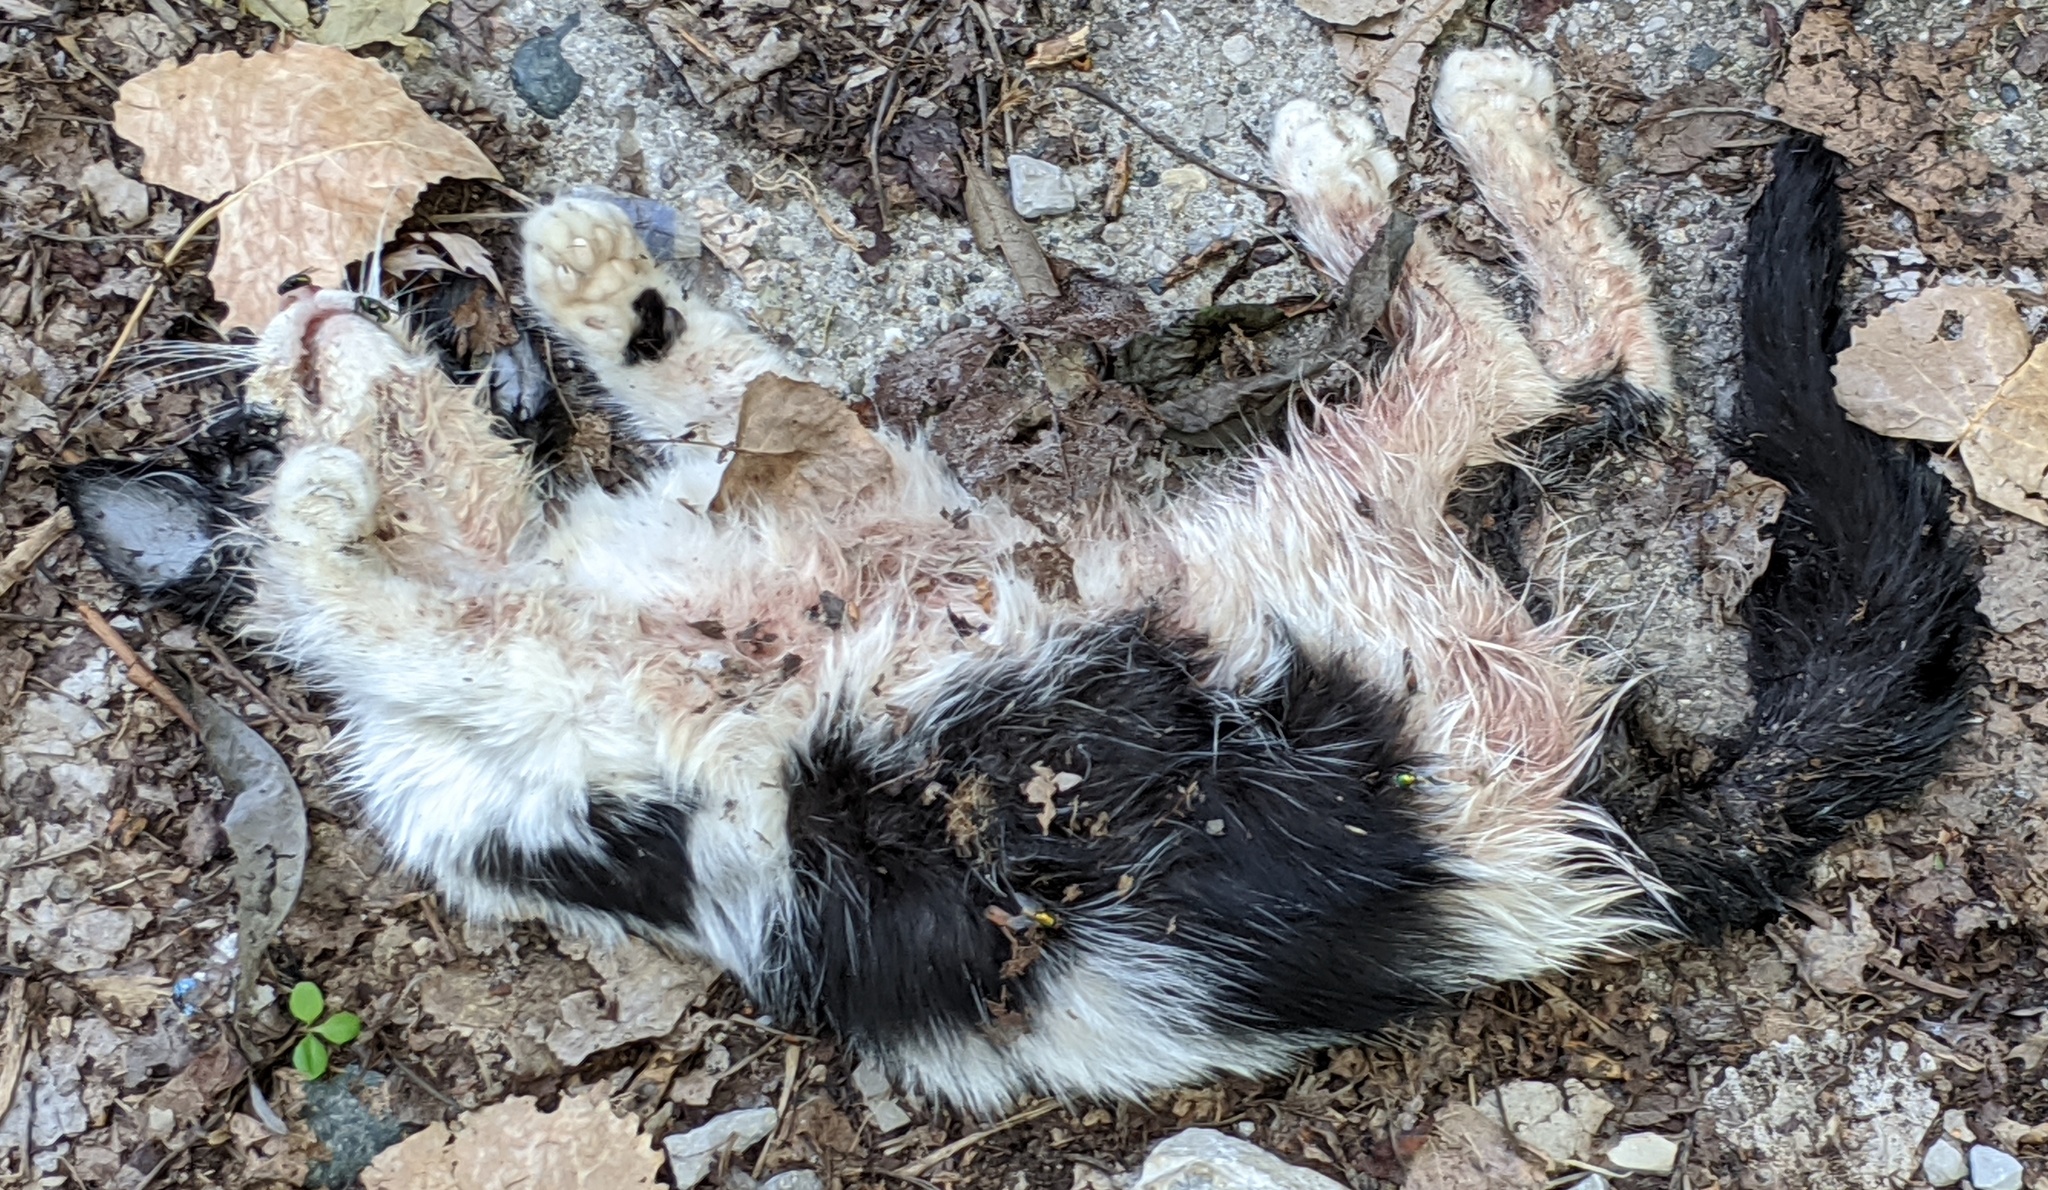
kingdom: Animalia
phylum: Chordata
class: Mammalia
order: Carnivora
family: Felidae
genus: Felis
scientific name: Felis catus
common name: Domestic cat
